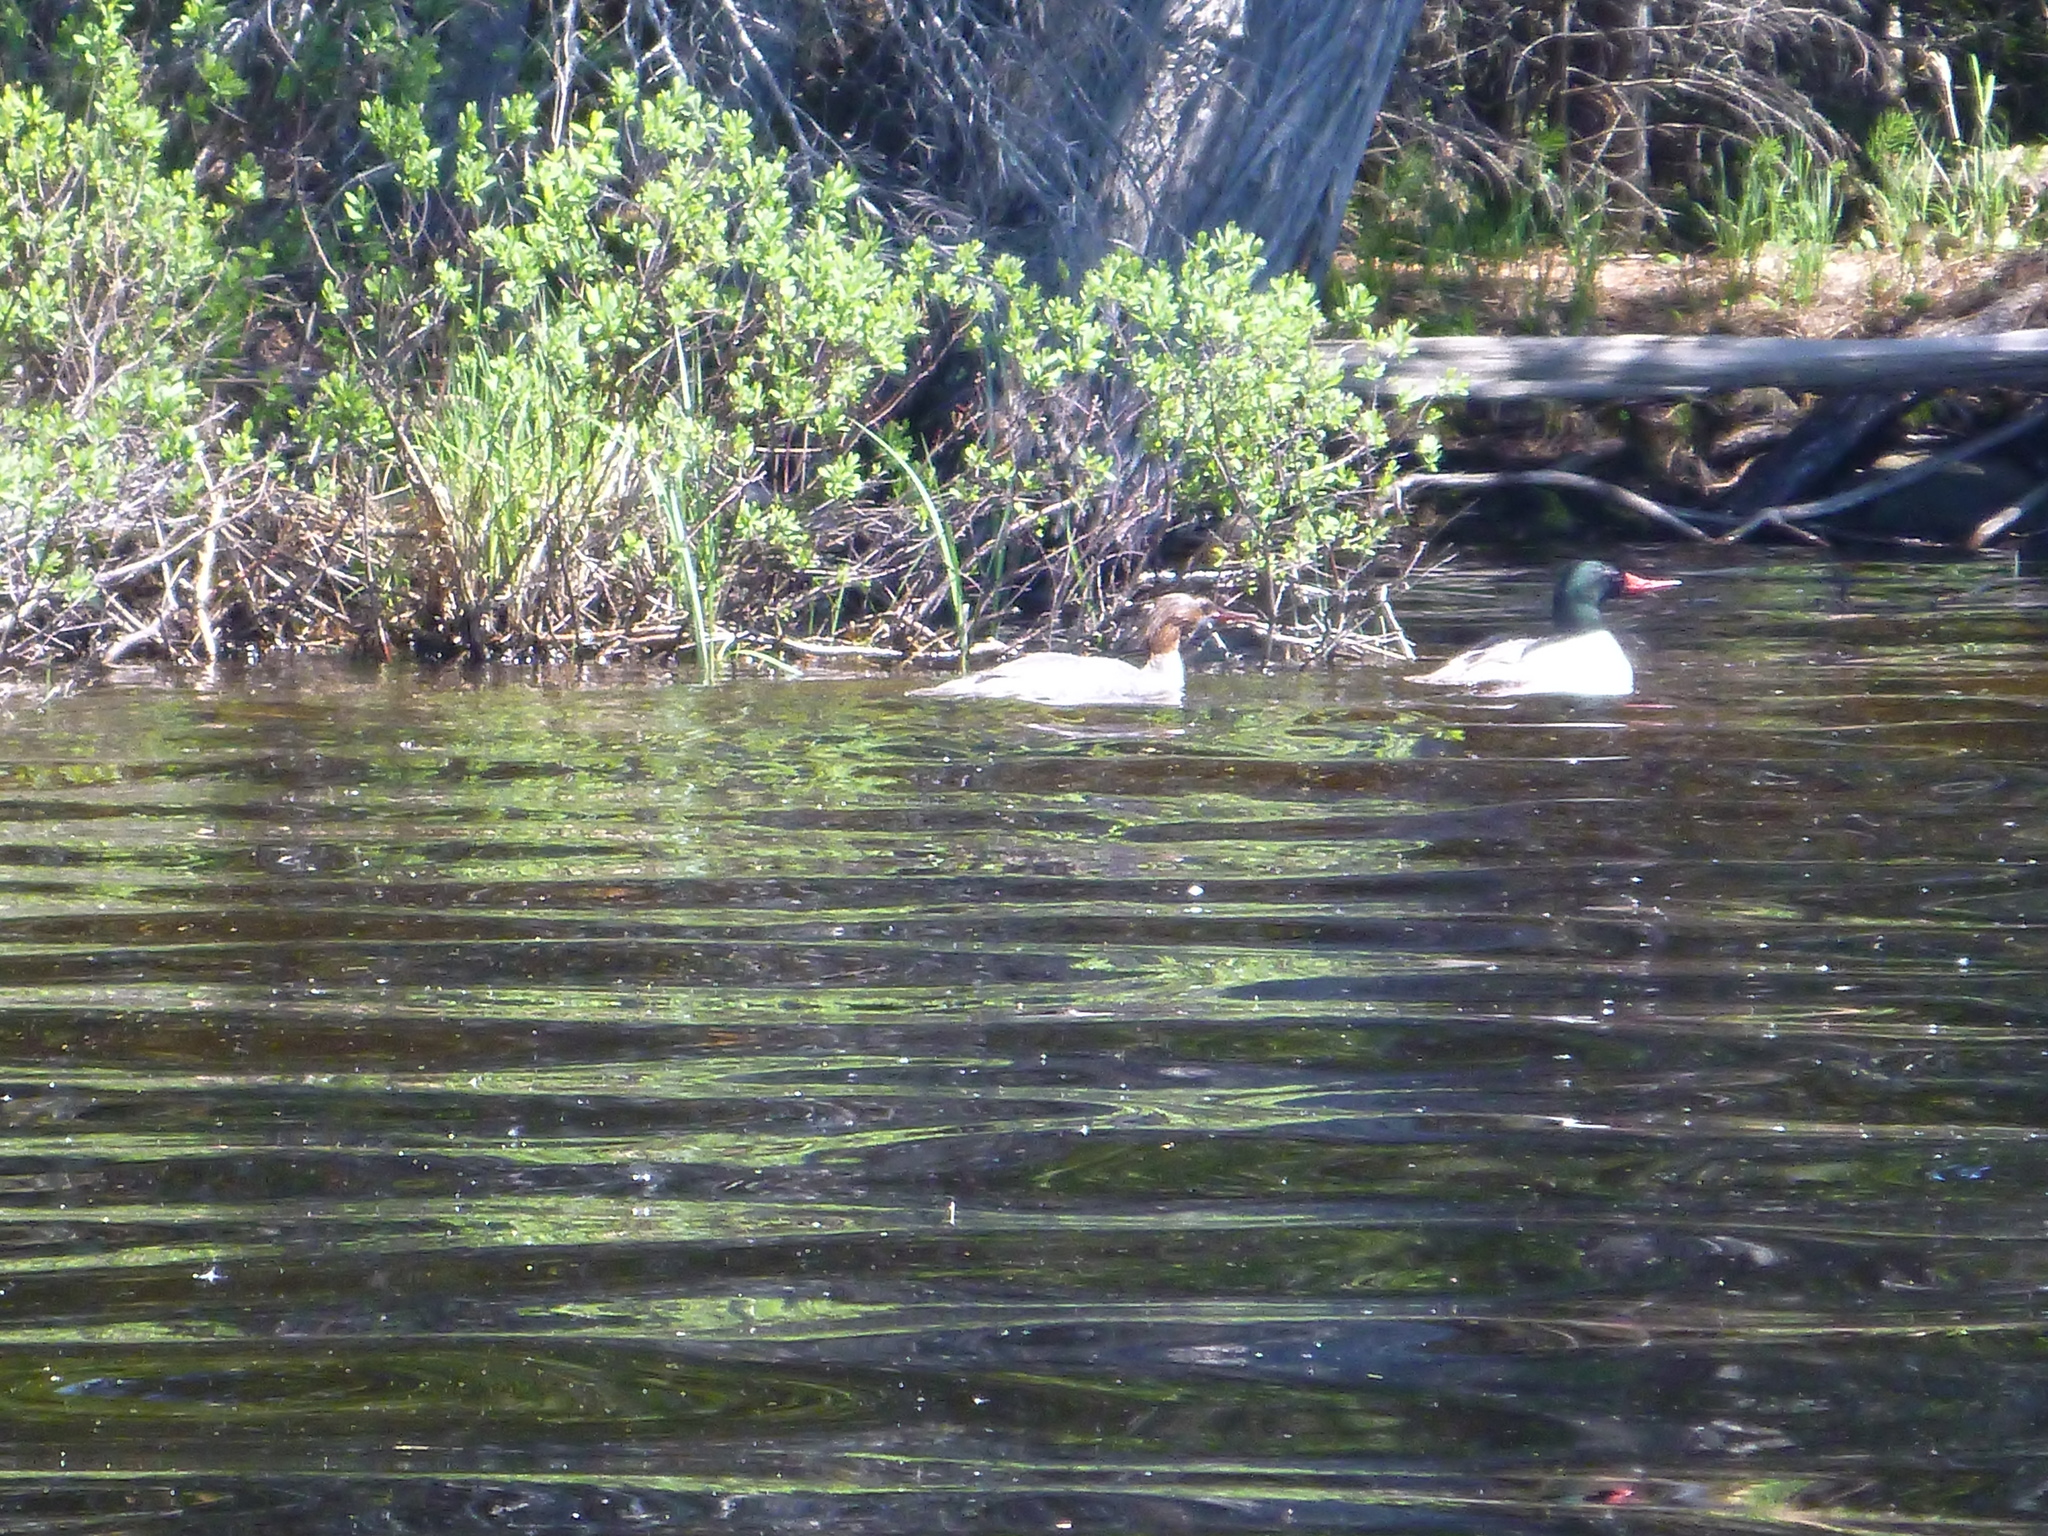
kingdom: Animalia
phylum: Chordata
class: Aves
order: Anseriformes
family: Anatidae
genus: Mergus
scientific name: Mergus merganser
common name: Common merganser
